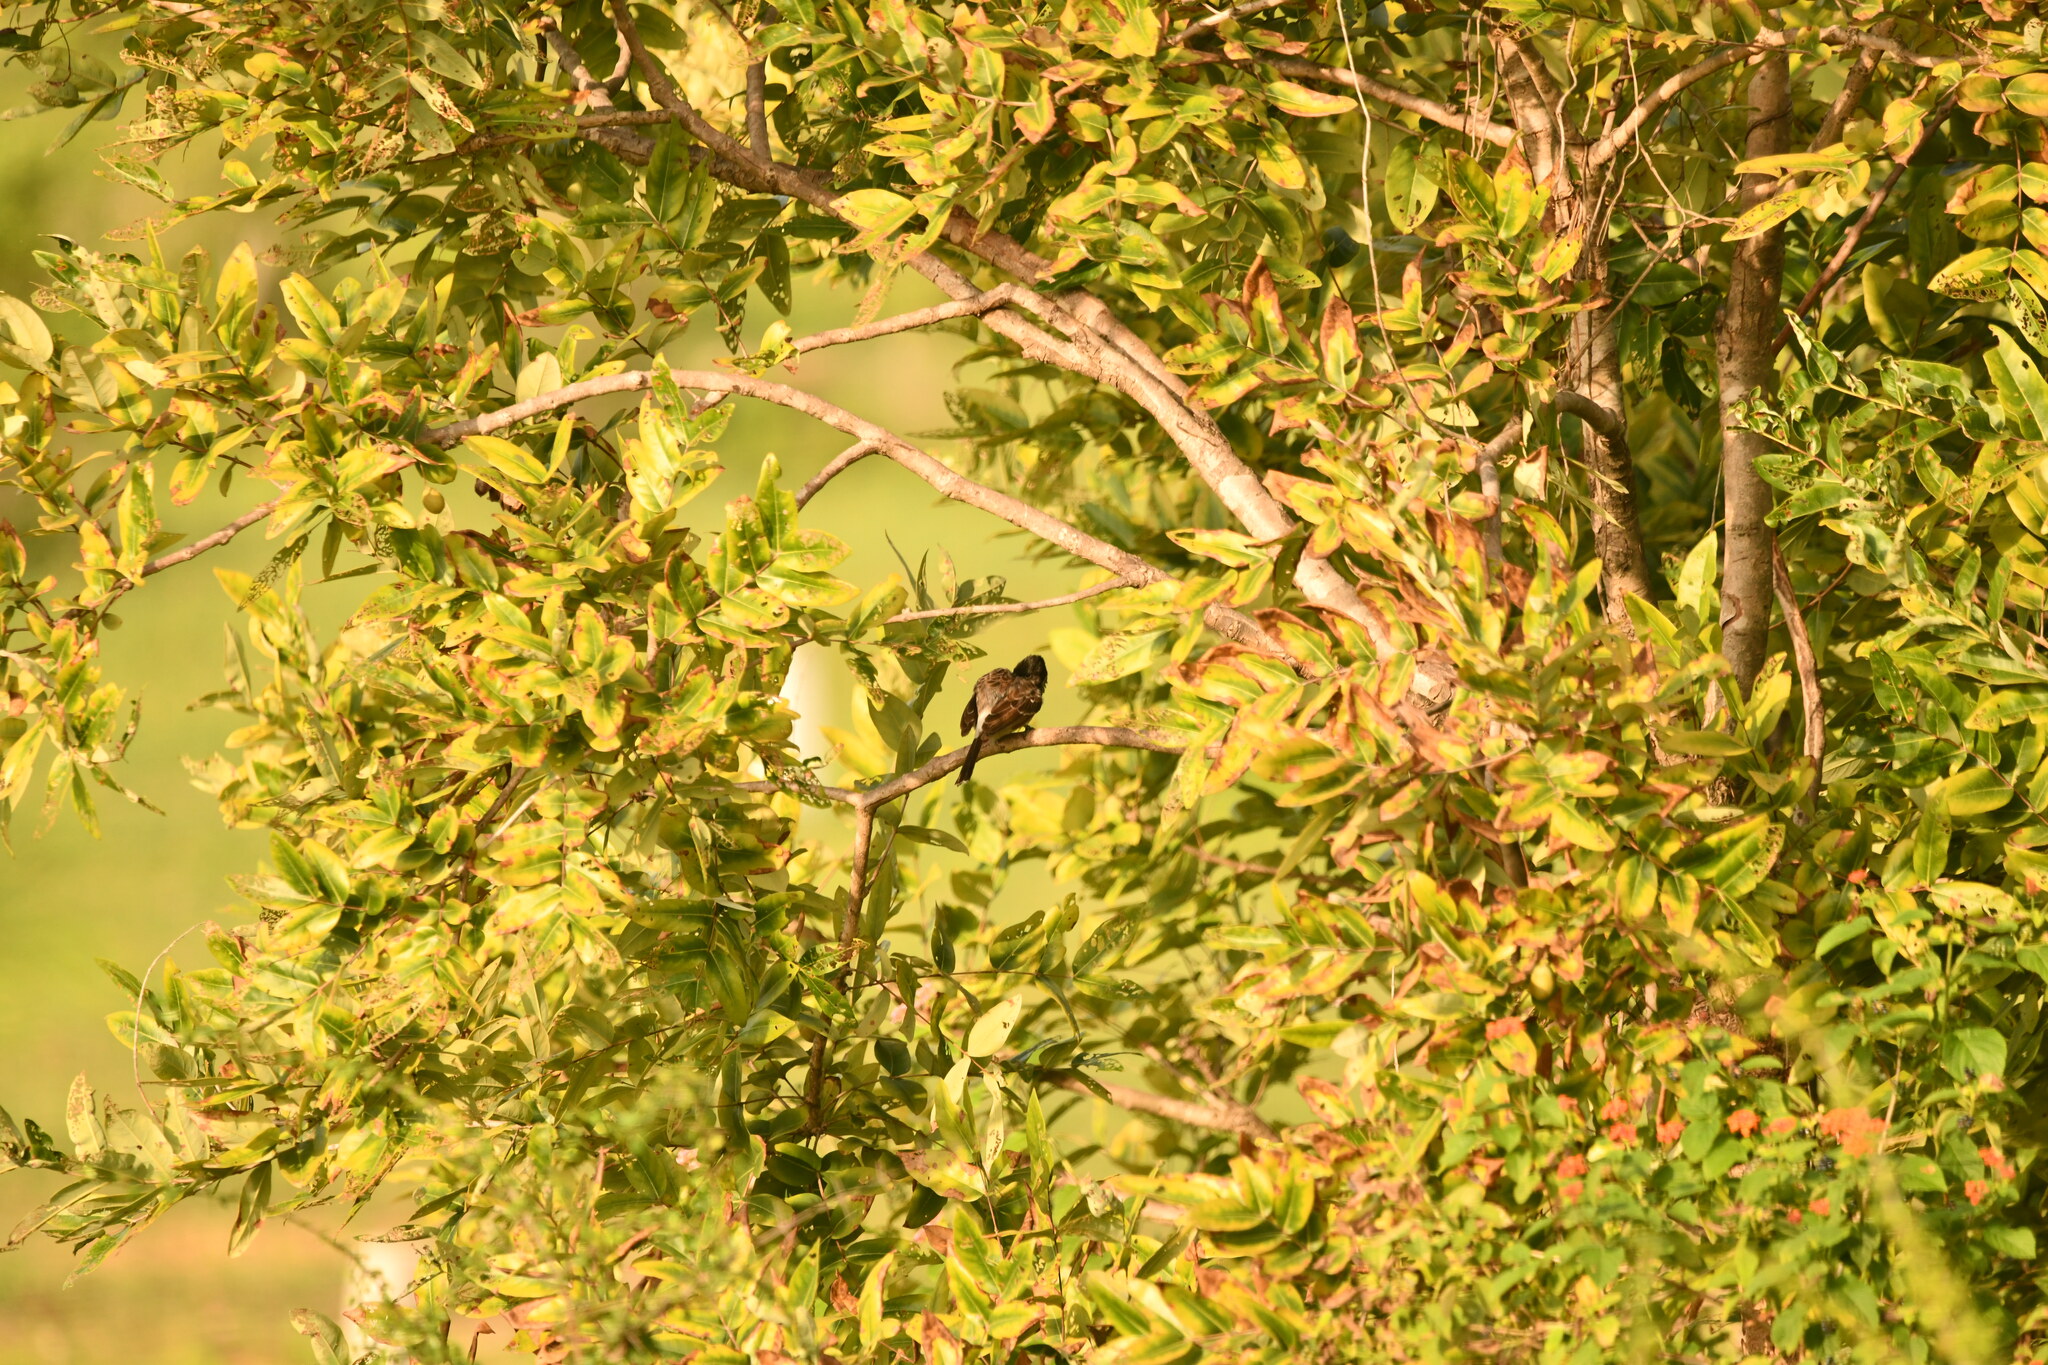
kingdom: Animalia
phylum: Chordata
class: Aves
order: Passeriformes
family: Pycnonotidae
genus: Pycnonotus
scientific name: Pycnonotus cafer
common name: Red-vented bulbul
